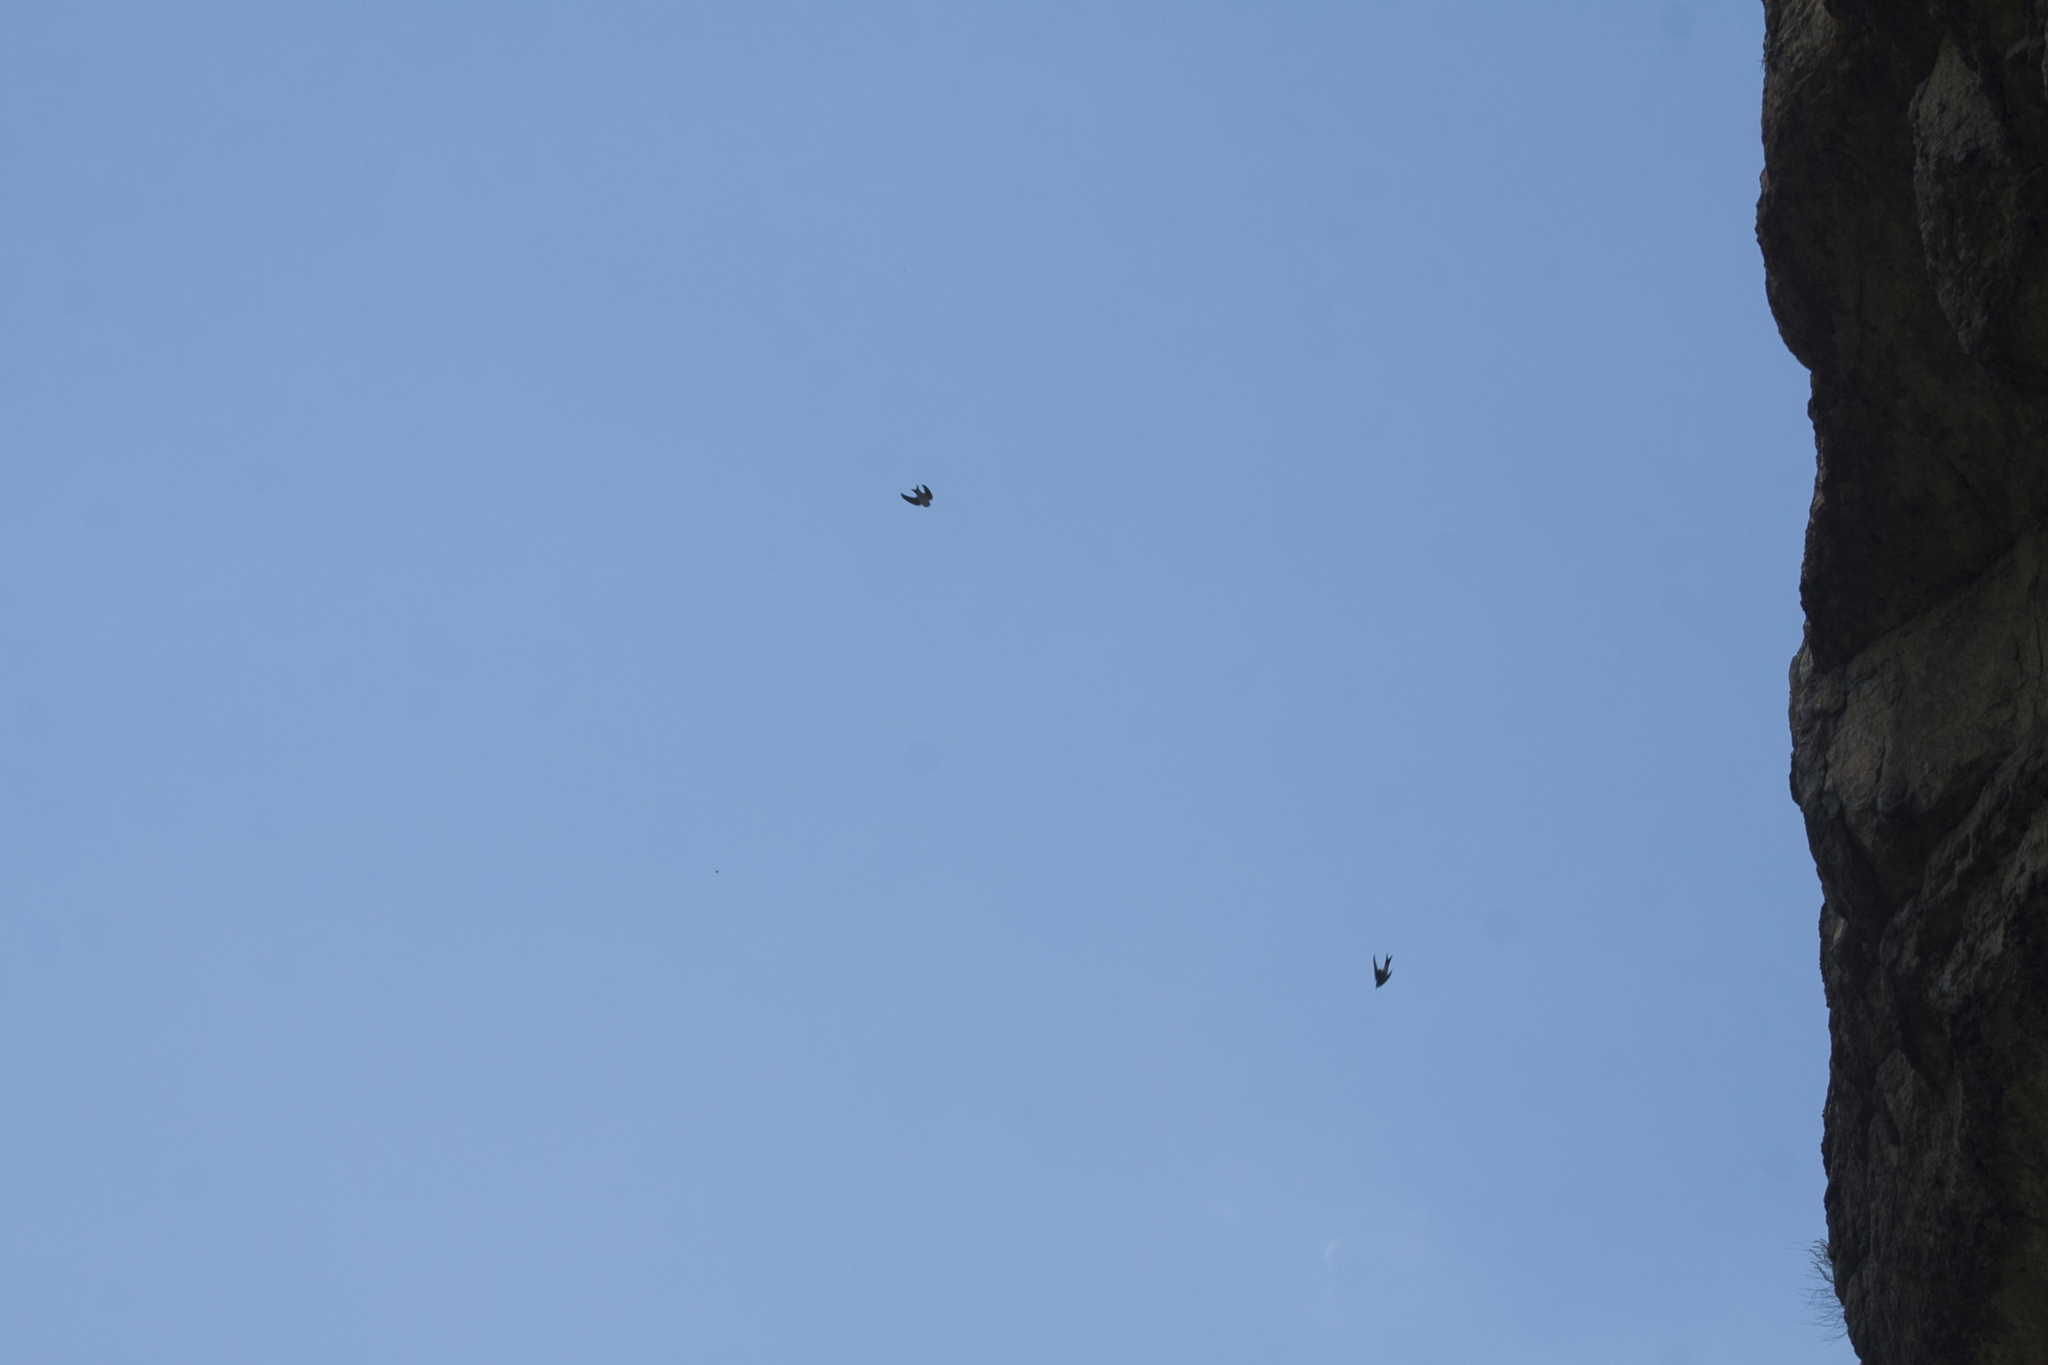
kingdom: Animalia
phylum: Chordata
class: Aves
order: Passeriformes
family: Hirundinidae
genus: Delichon
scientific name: Delichon urbicum
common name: Common house martin
